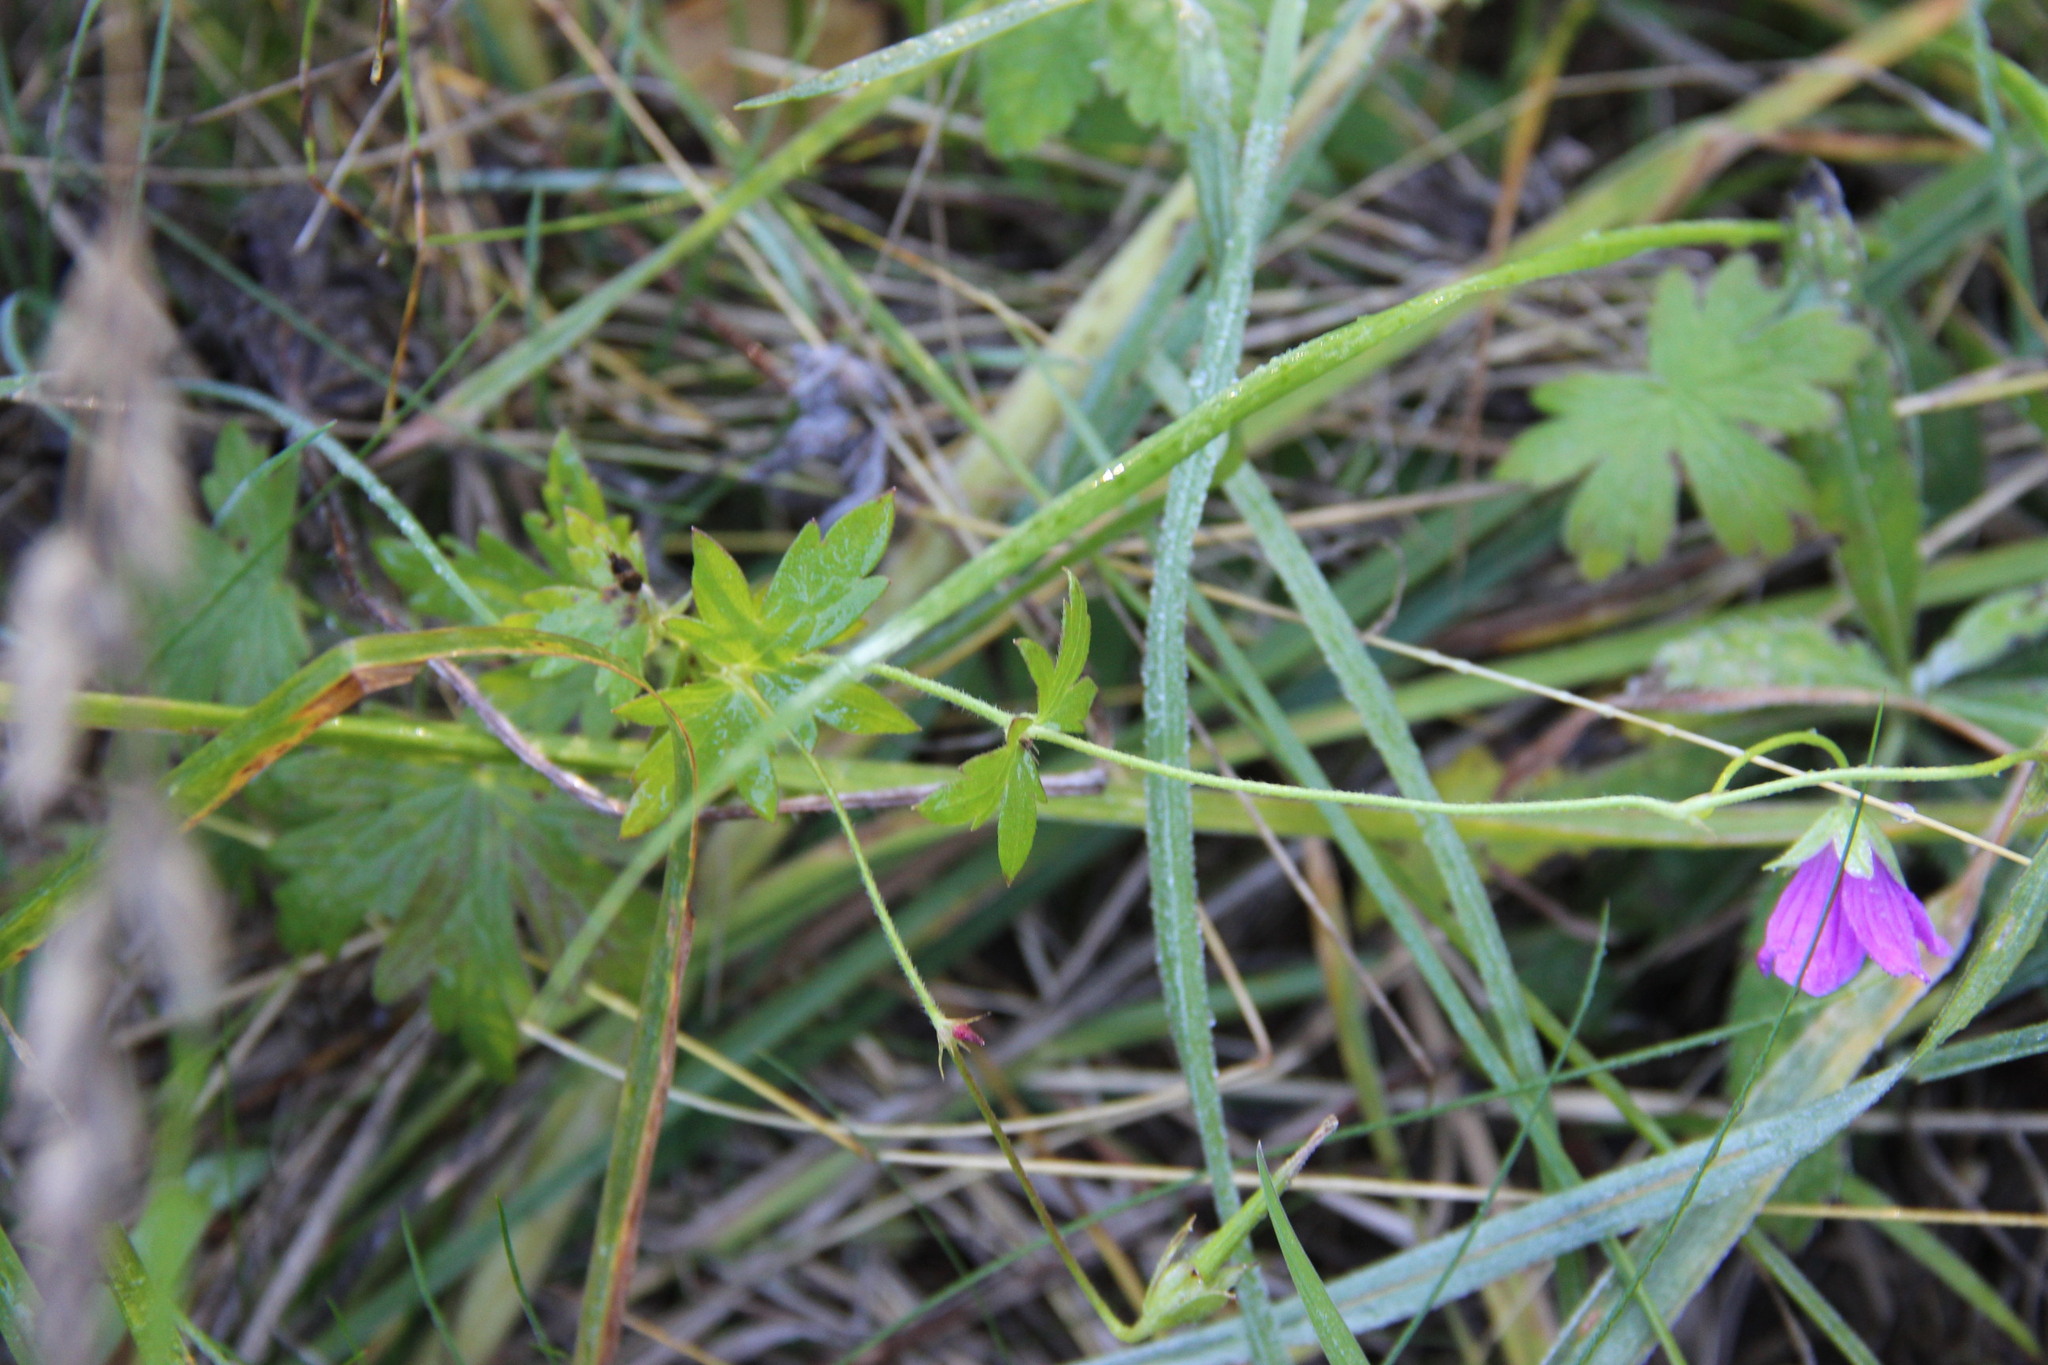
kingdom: Plantae
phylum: Tracheophyta
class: Magnoliopsida
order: Geraniales
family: Geraniaceae
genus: Geranium
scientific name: Geranium palustre
